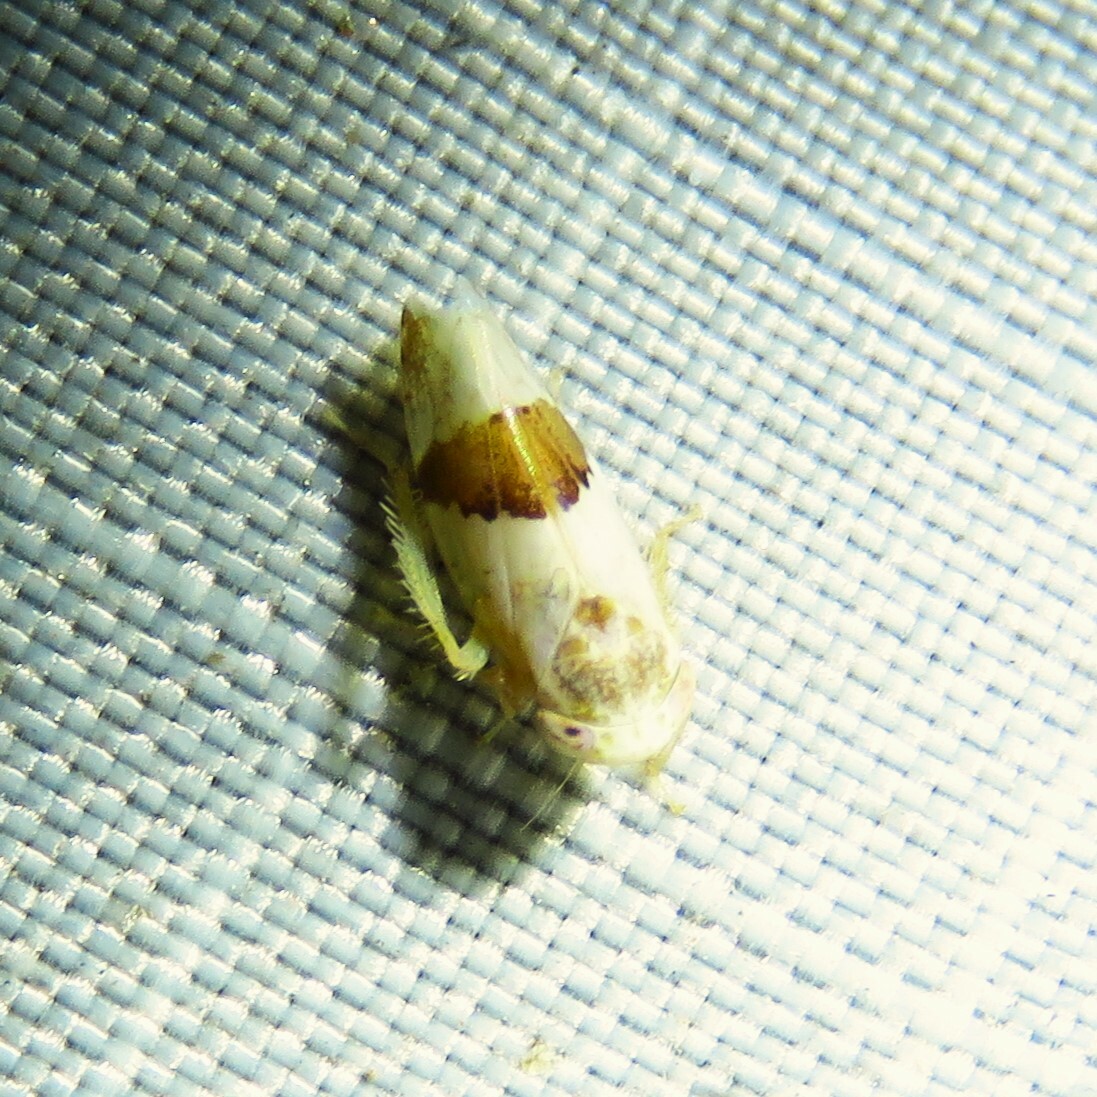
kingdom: Animalia
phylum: Arthropoda
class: Insecta
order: Hemiptera
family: Cicadellidae
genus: Norvellina
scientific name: Norvellina seminuda
